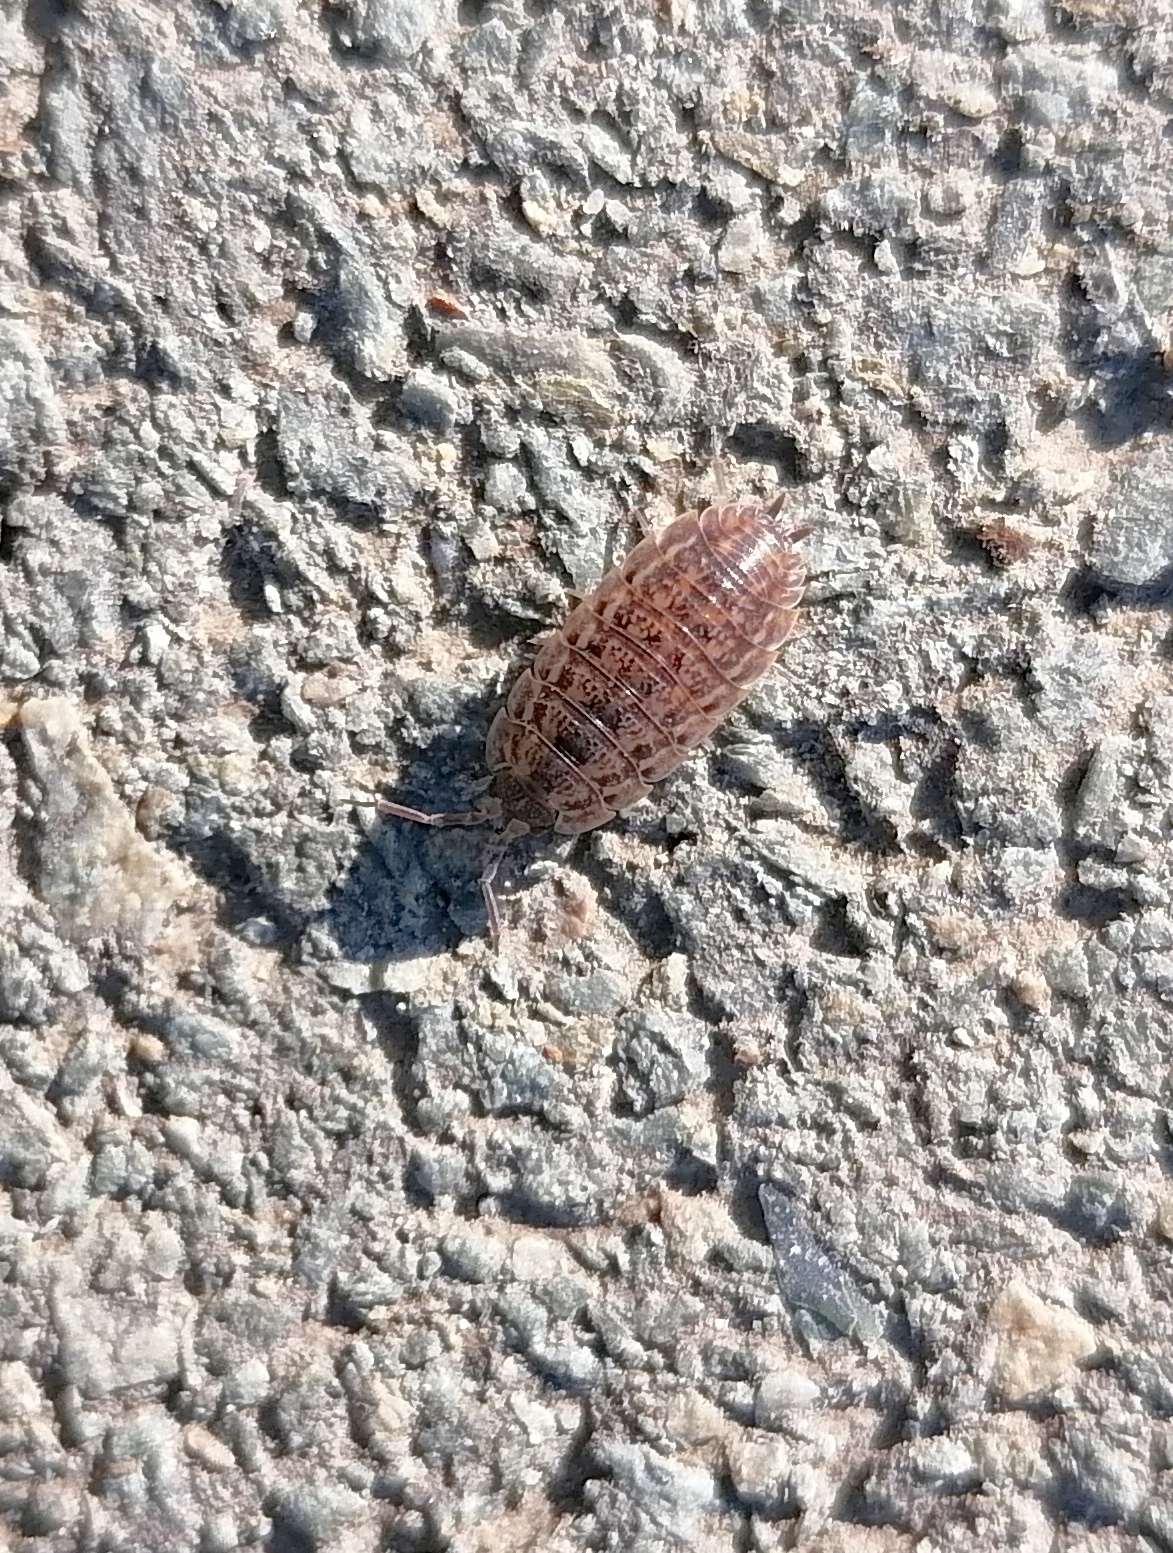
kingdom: Animalia
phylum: Arthropoda
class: Malacostraca
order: Isopoda
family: Trachelipodidae
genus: Trachelipus
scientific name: Trachelipus rathkii
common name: Isopod
